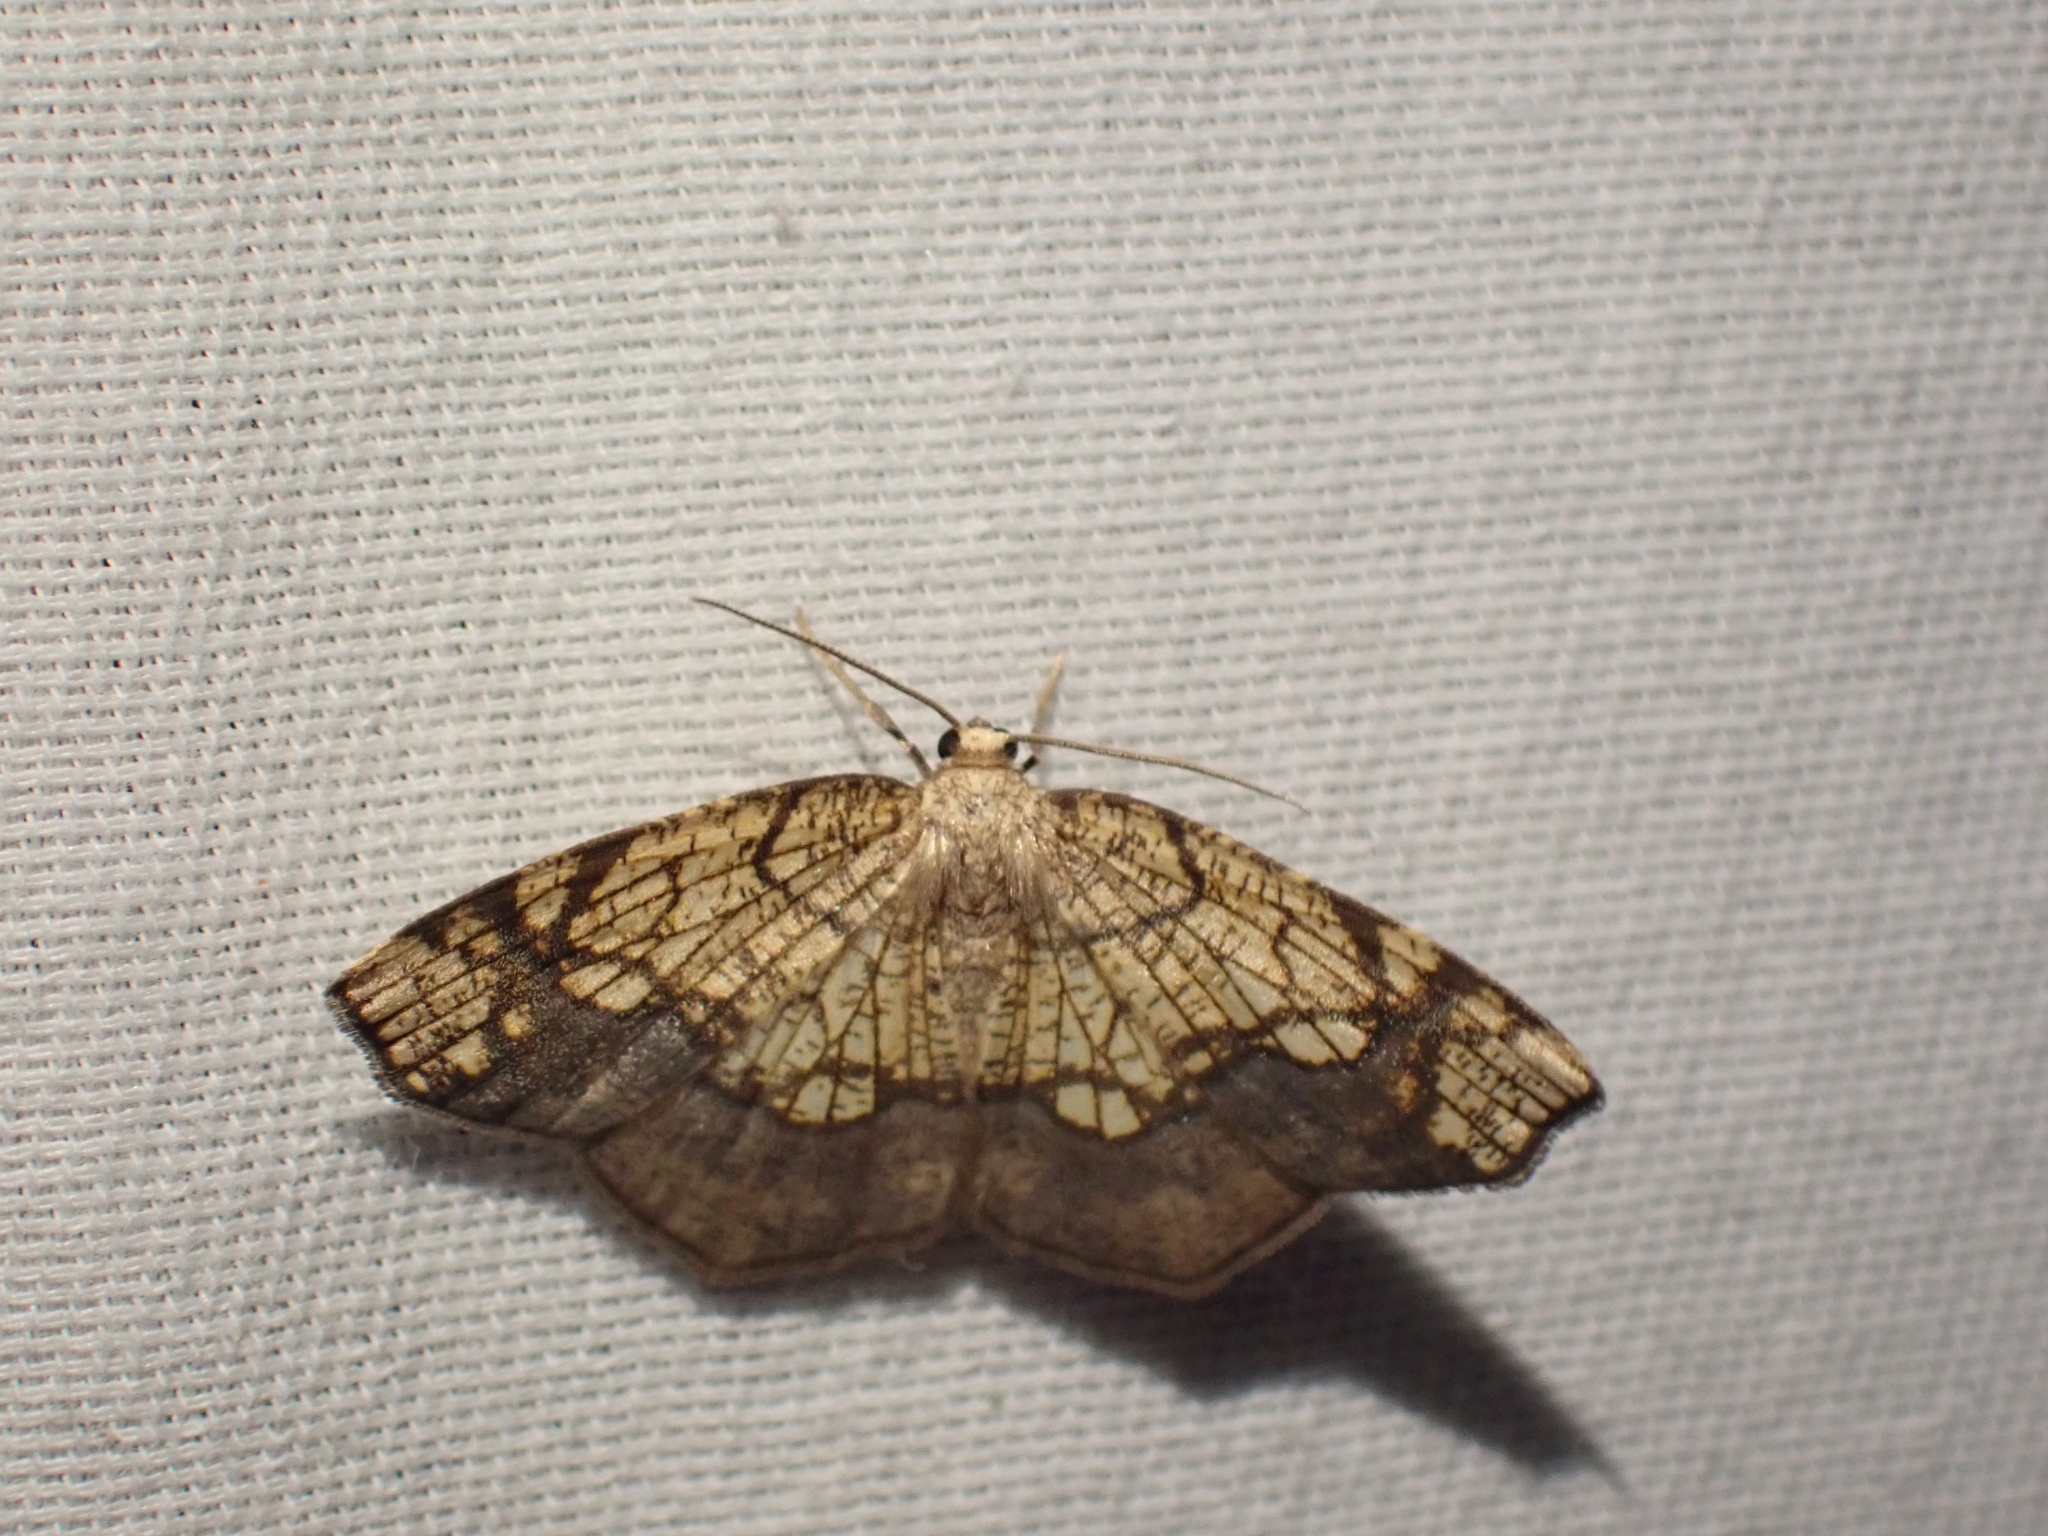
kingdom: Animalia
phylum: Arthropoda
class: Insecta
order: Lepidoptera
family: Geometridae
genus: Nematocampa
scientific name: Nematocampa resistaria
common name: Horned spanworm moth
